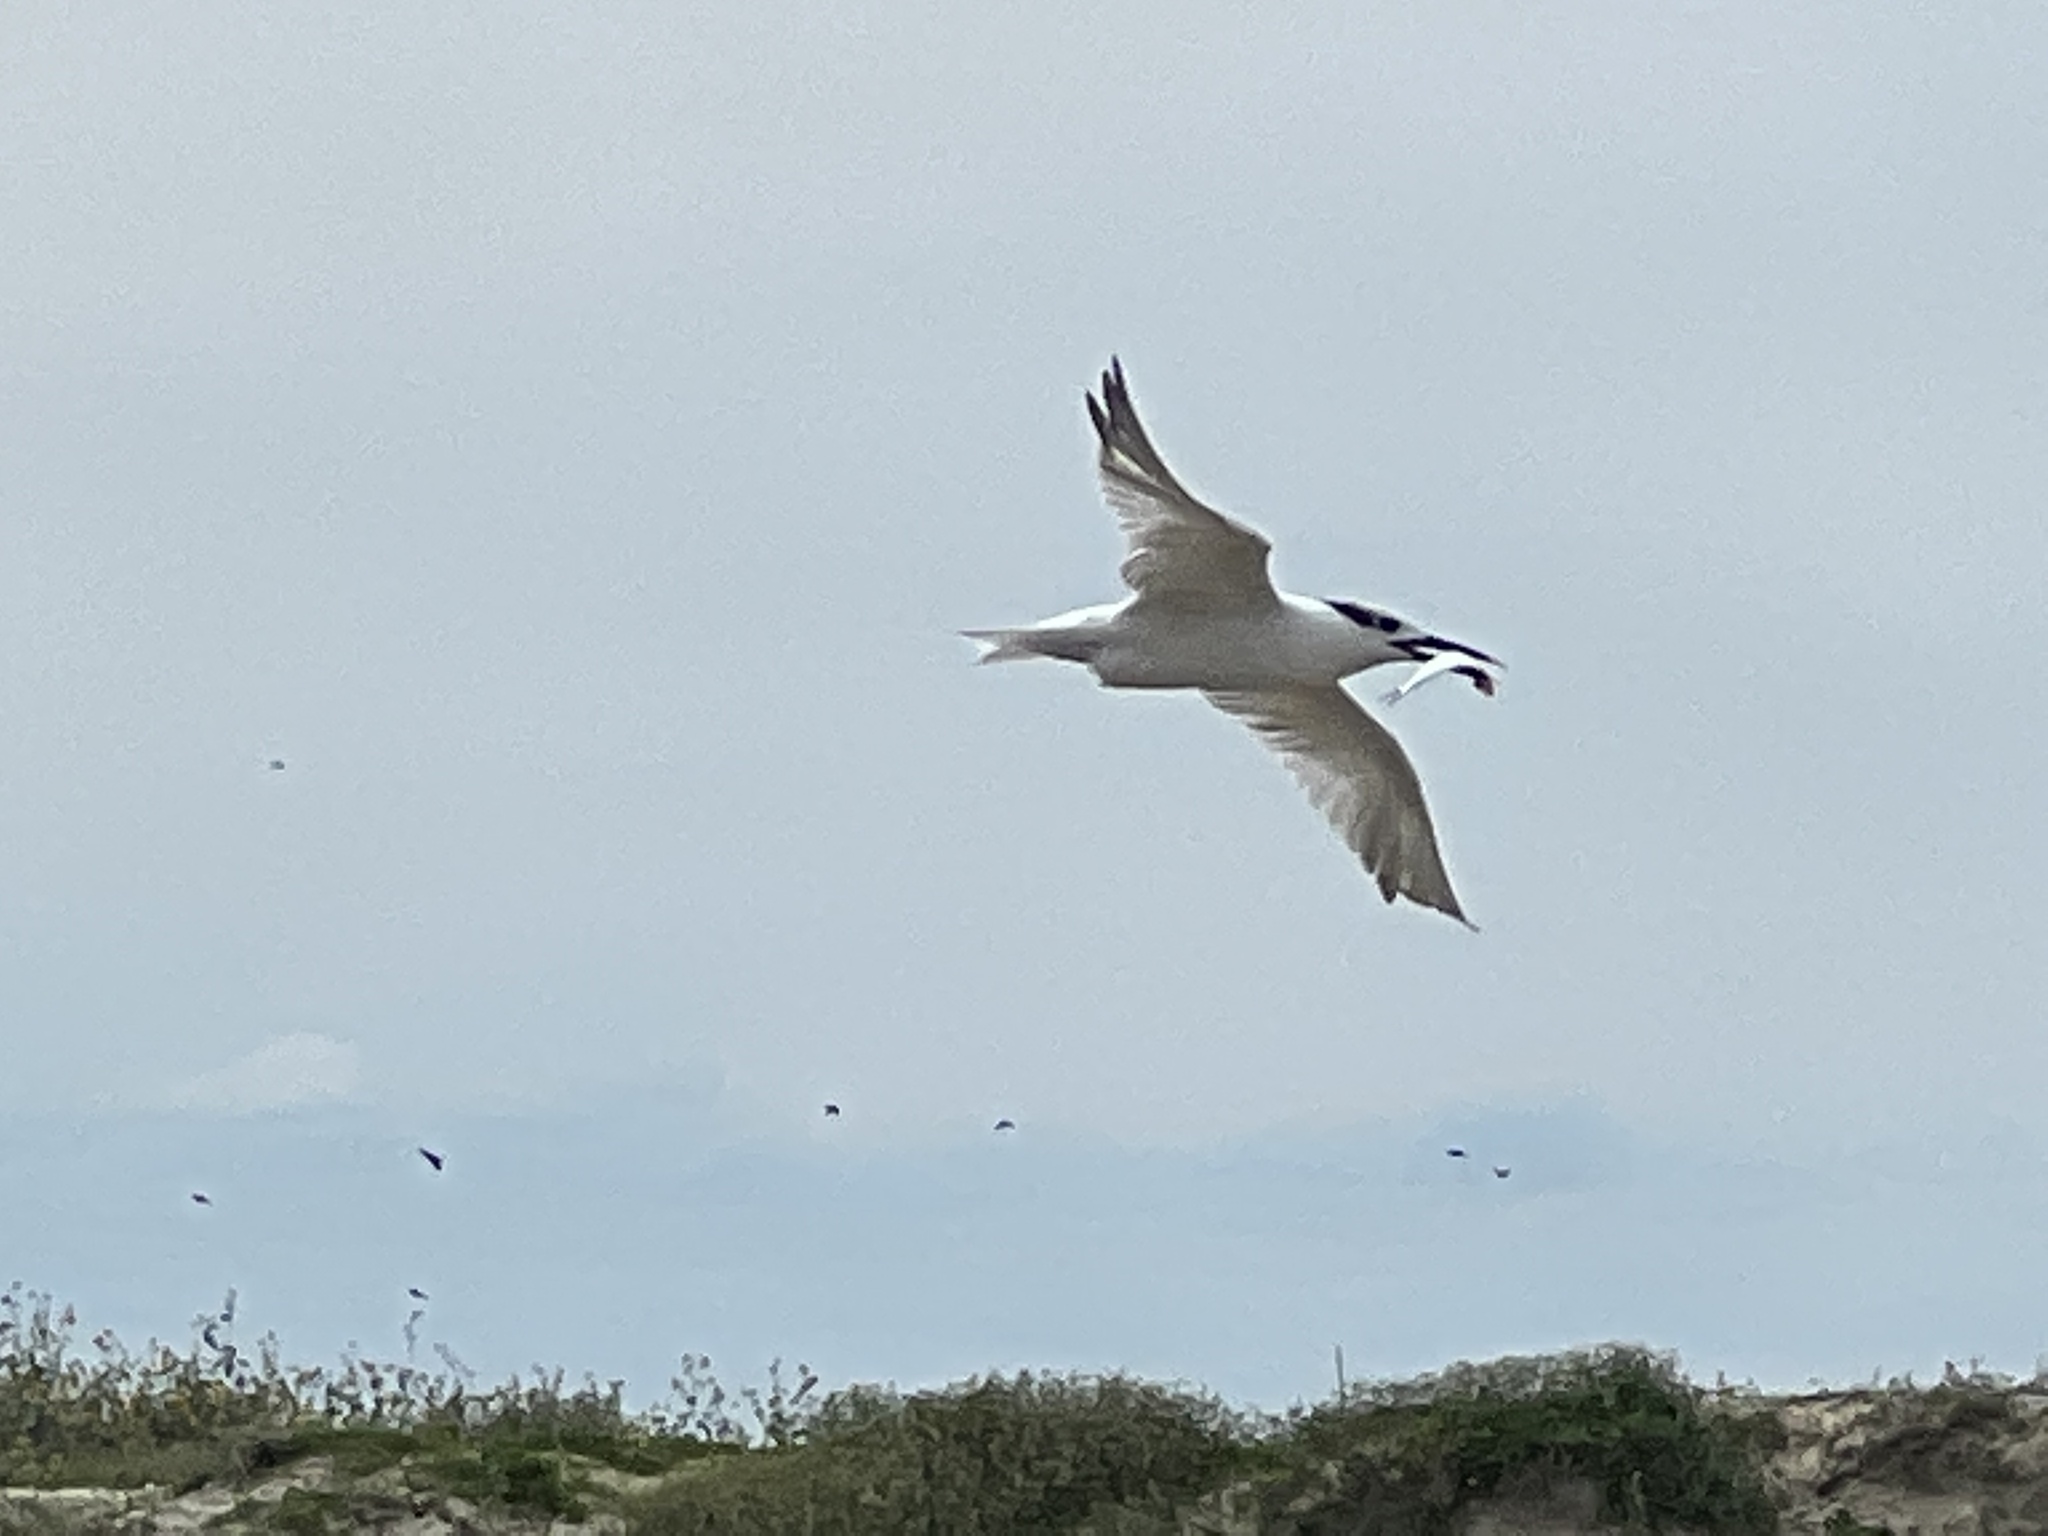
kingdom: Animalia
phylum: Chordata
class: Aves
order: Charadriiformes
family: Laridae
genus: Thalasseus
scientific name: Thalasseus sandvicensis
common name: Sandwich tern
